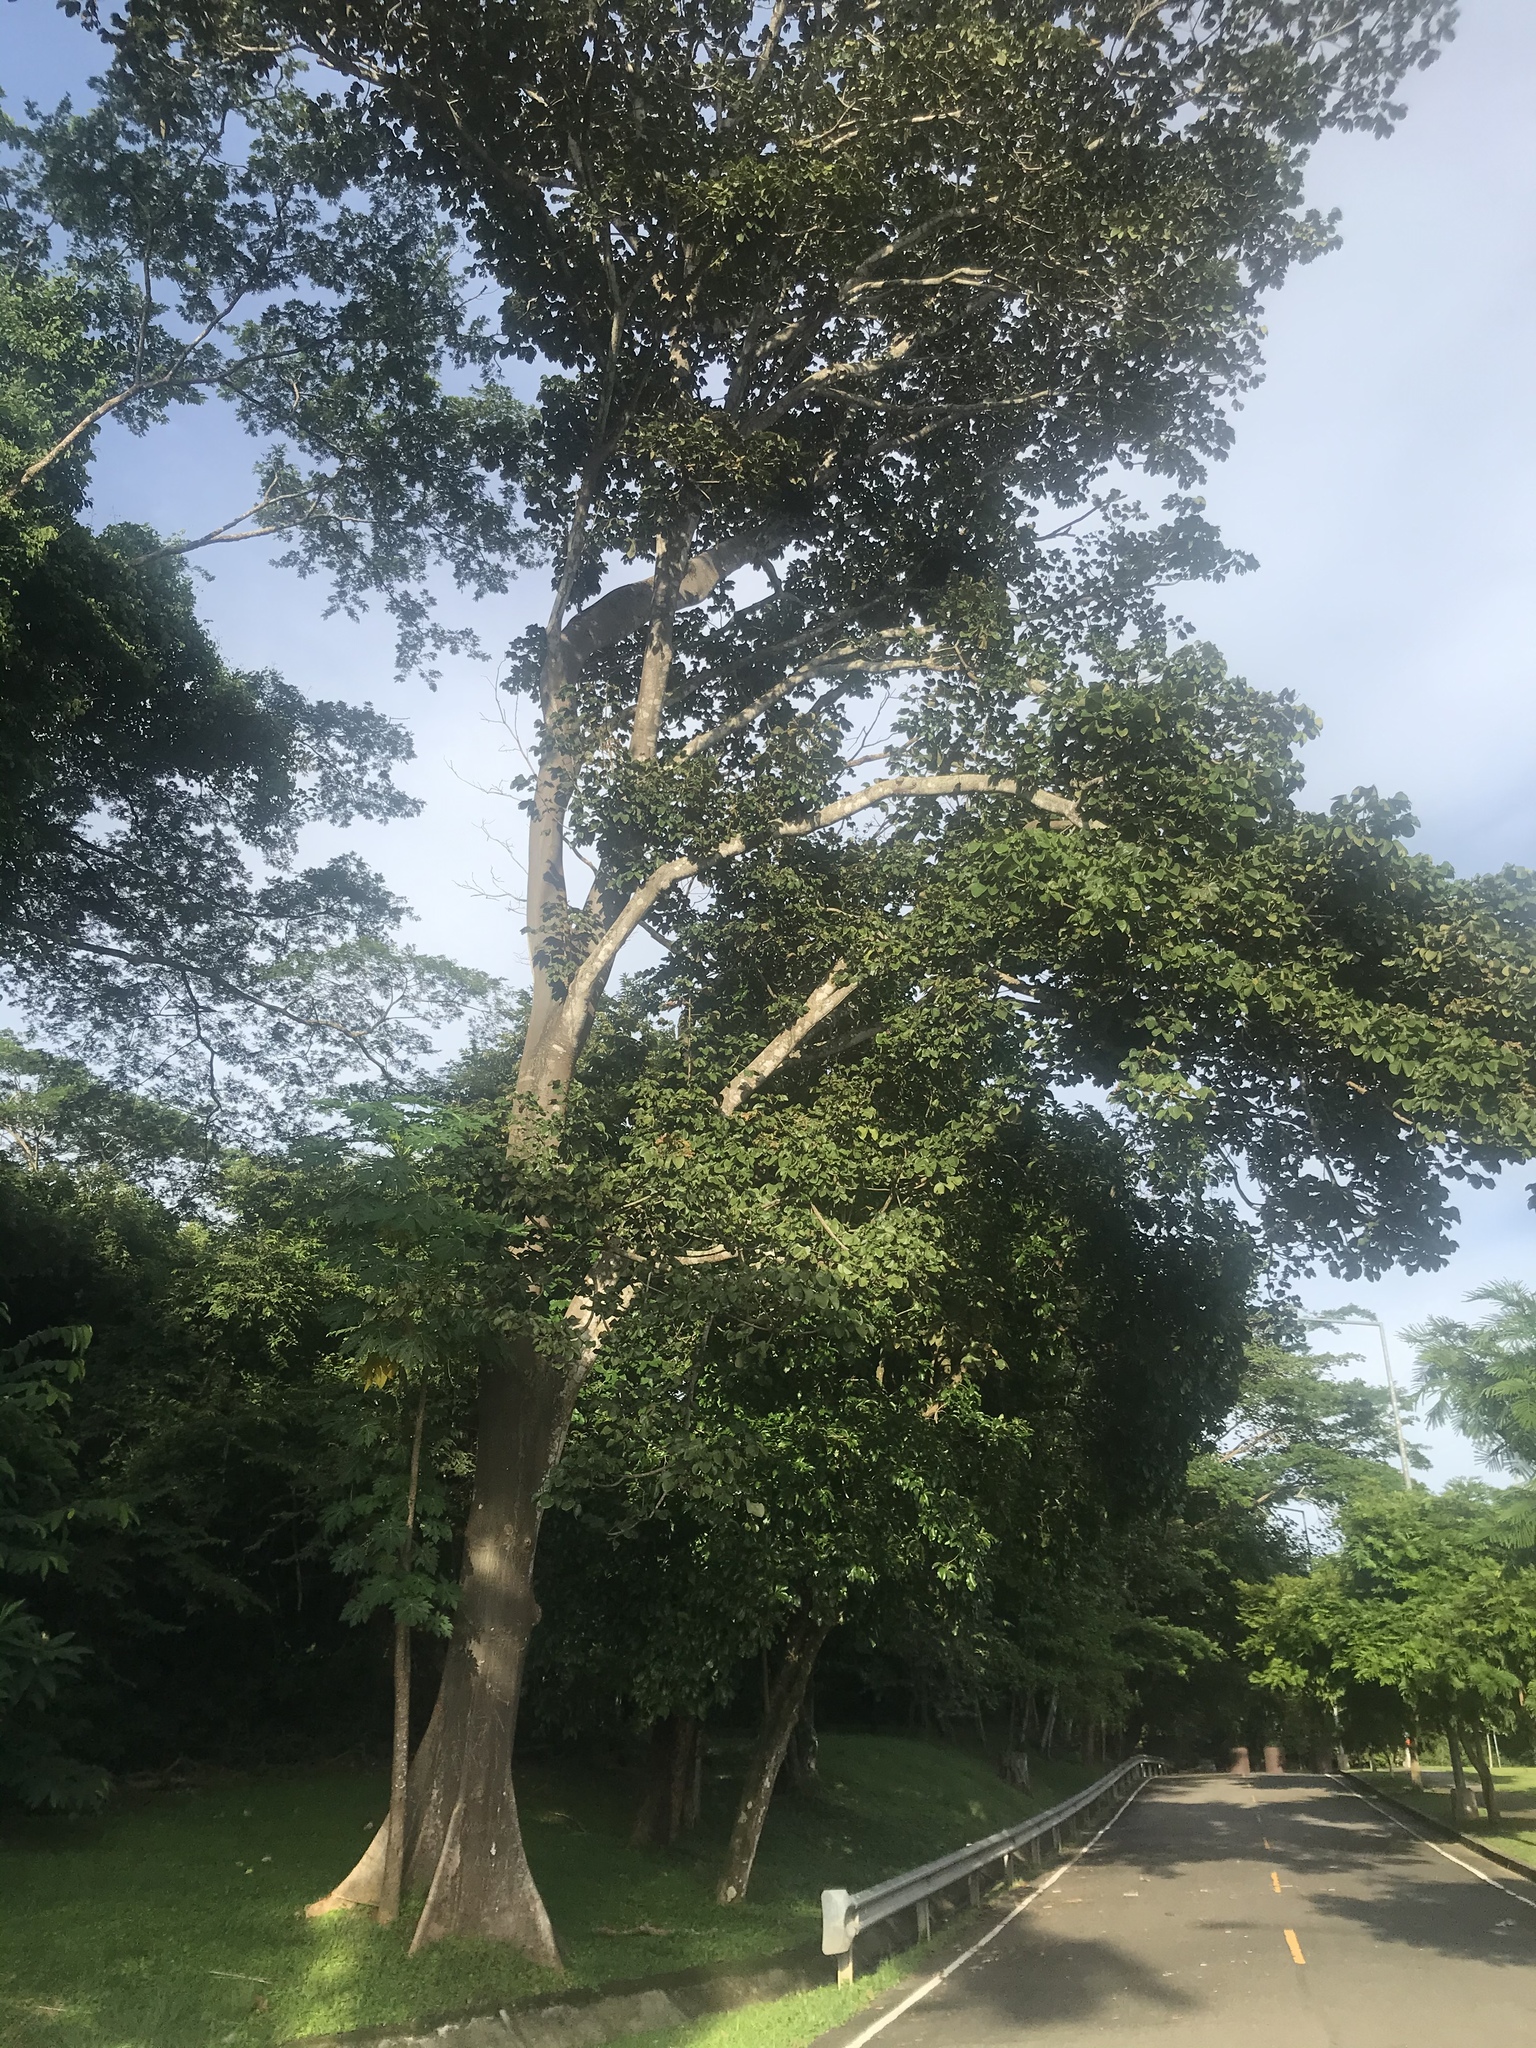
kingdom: Plantae
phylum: Tracheophyta
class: Magnoliopsida
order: Malvales
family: Malvaceae
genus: Sterculia
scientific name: Sterculia apetala
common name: Panama tree
